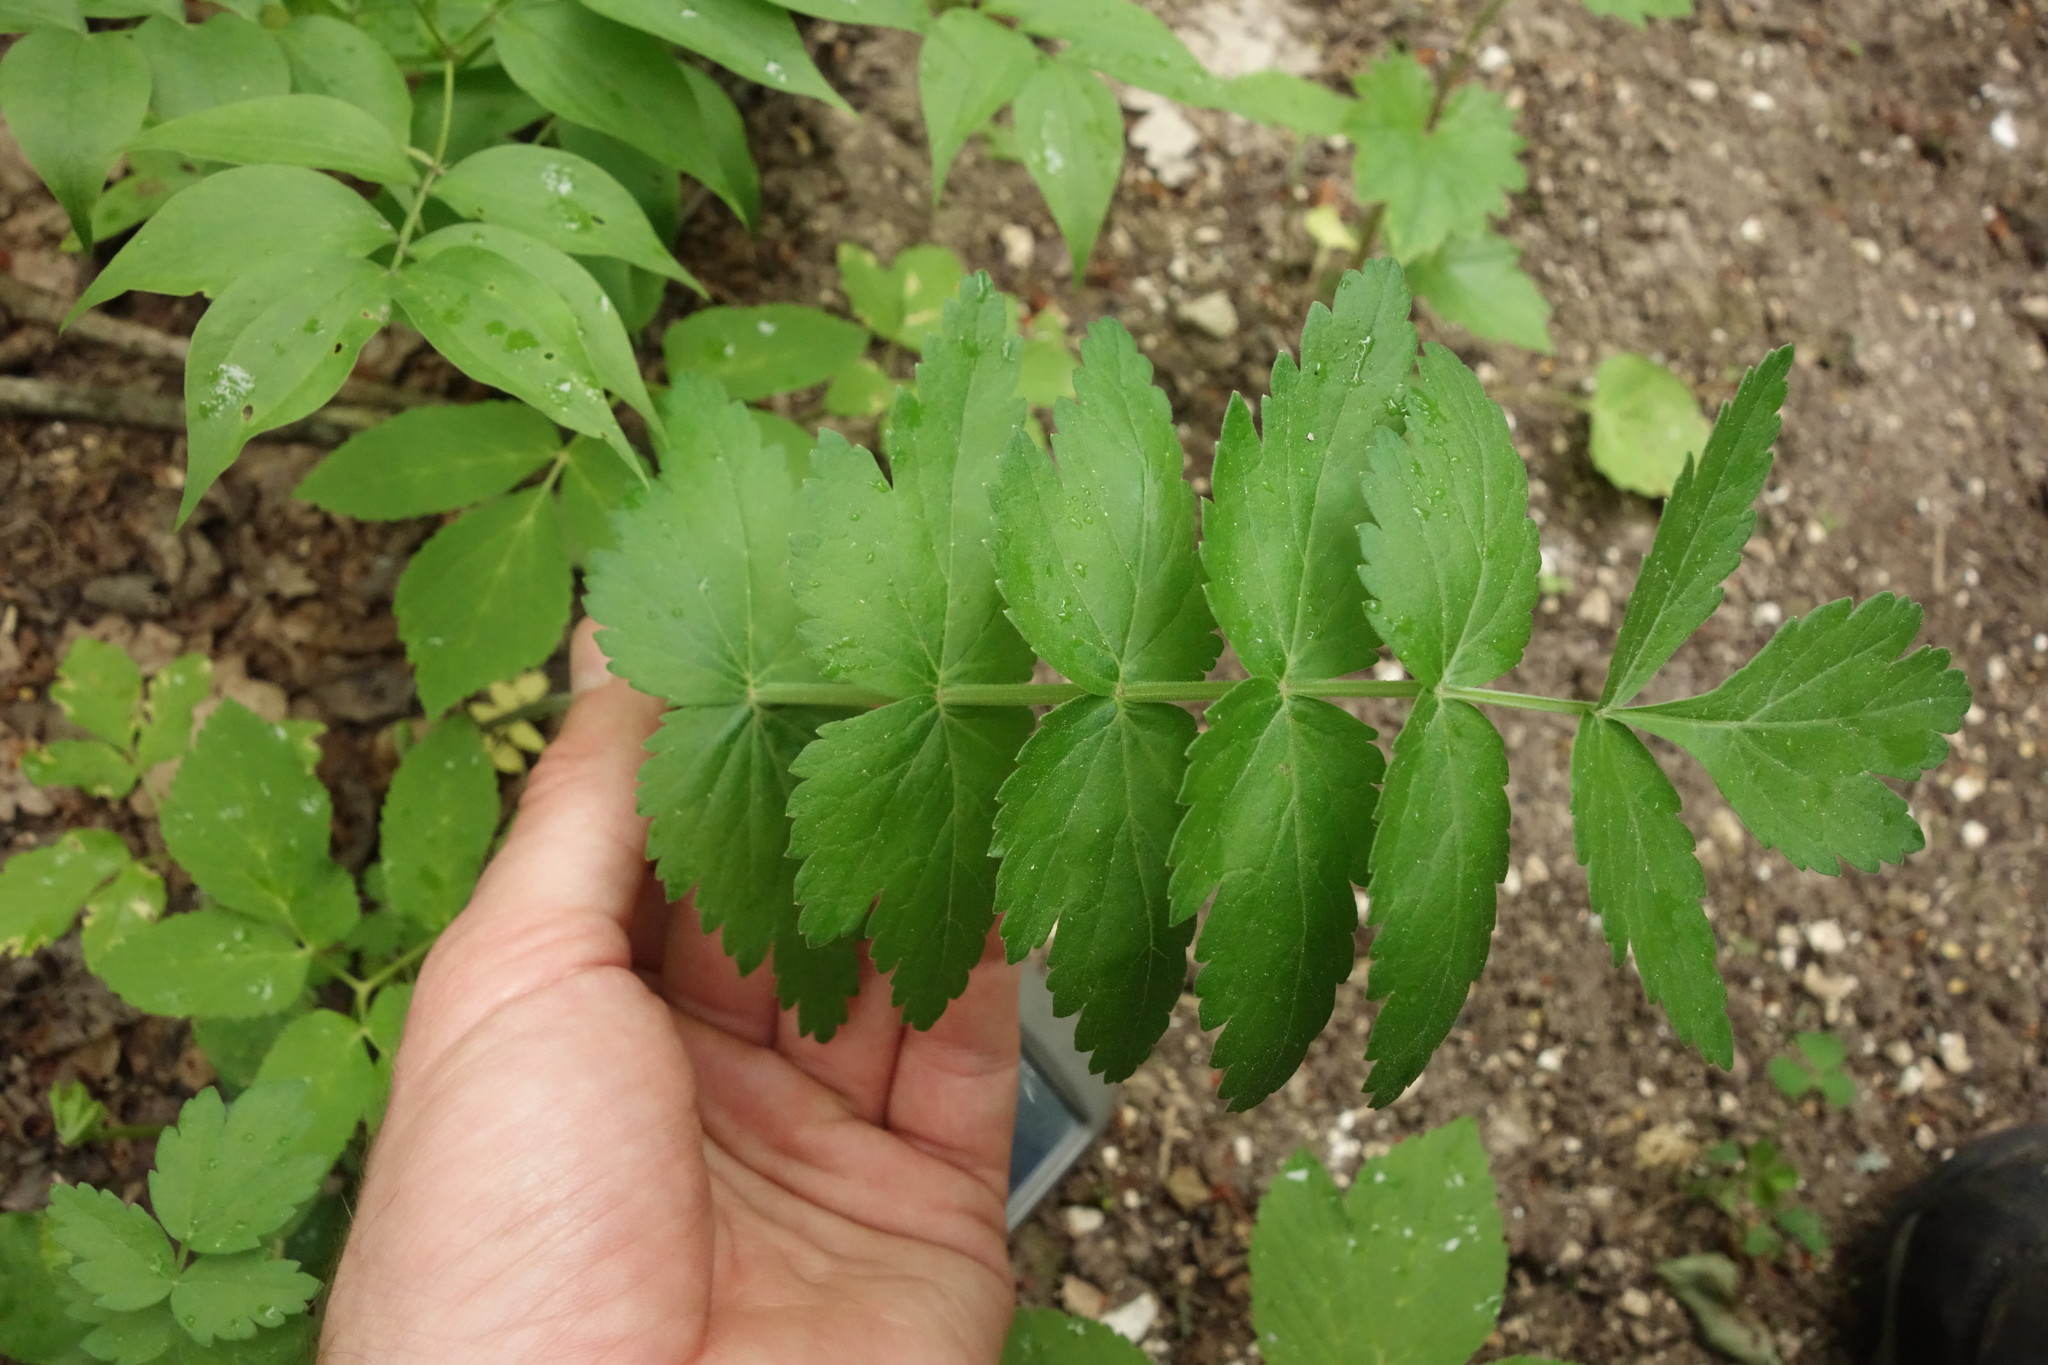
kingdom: Plantae
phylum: Tracheophyta
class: Magnoliopsida
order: Apiales
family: Apiaceae
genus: Pimpinella
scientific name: Pimpinella saxifraga
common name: Burnet-saxifrage
